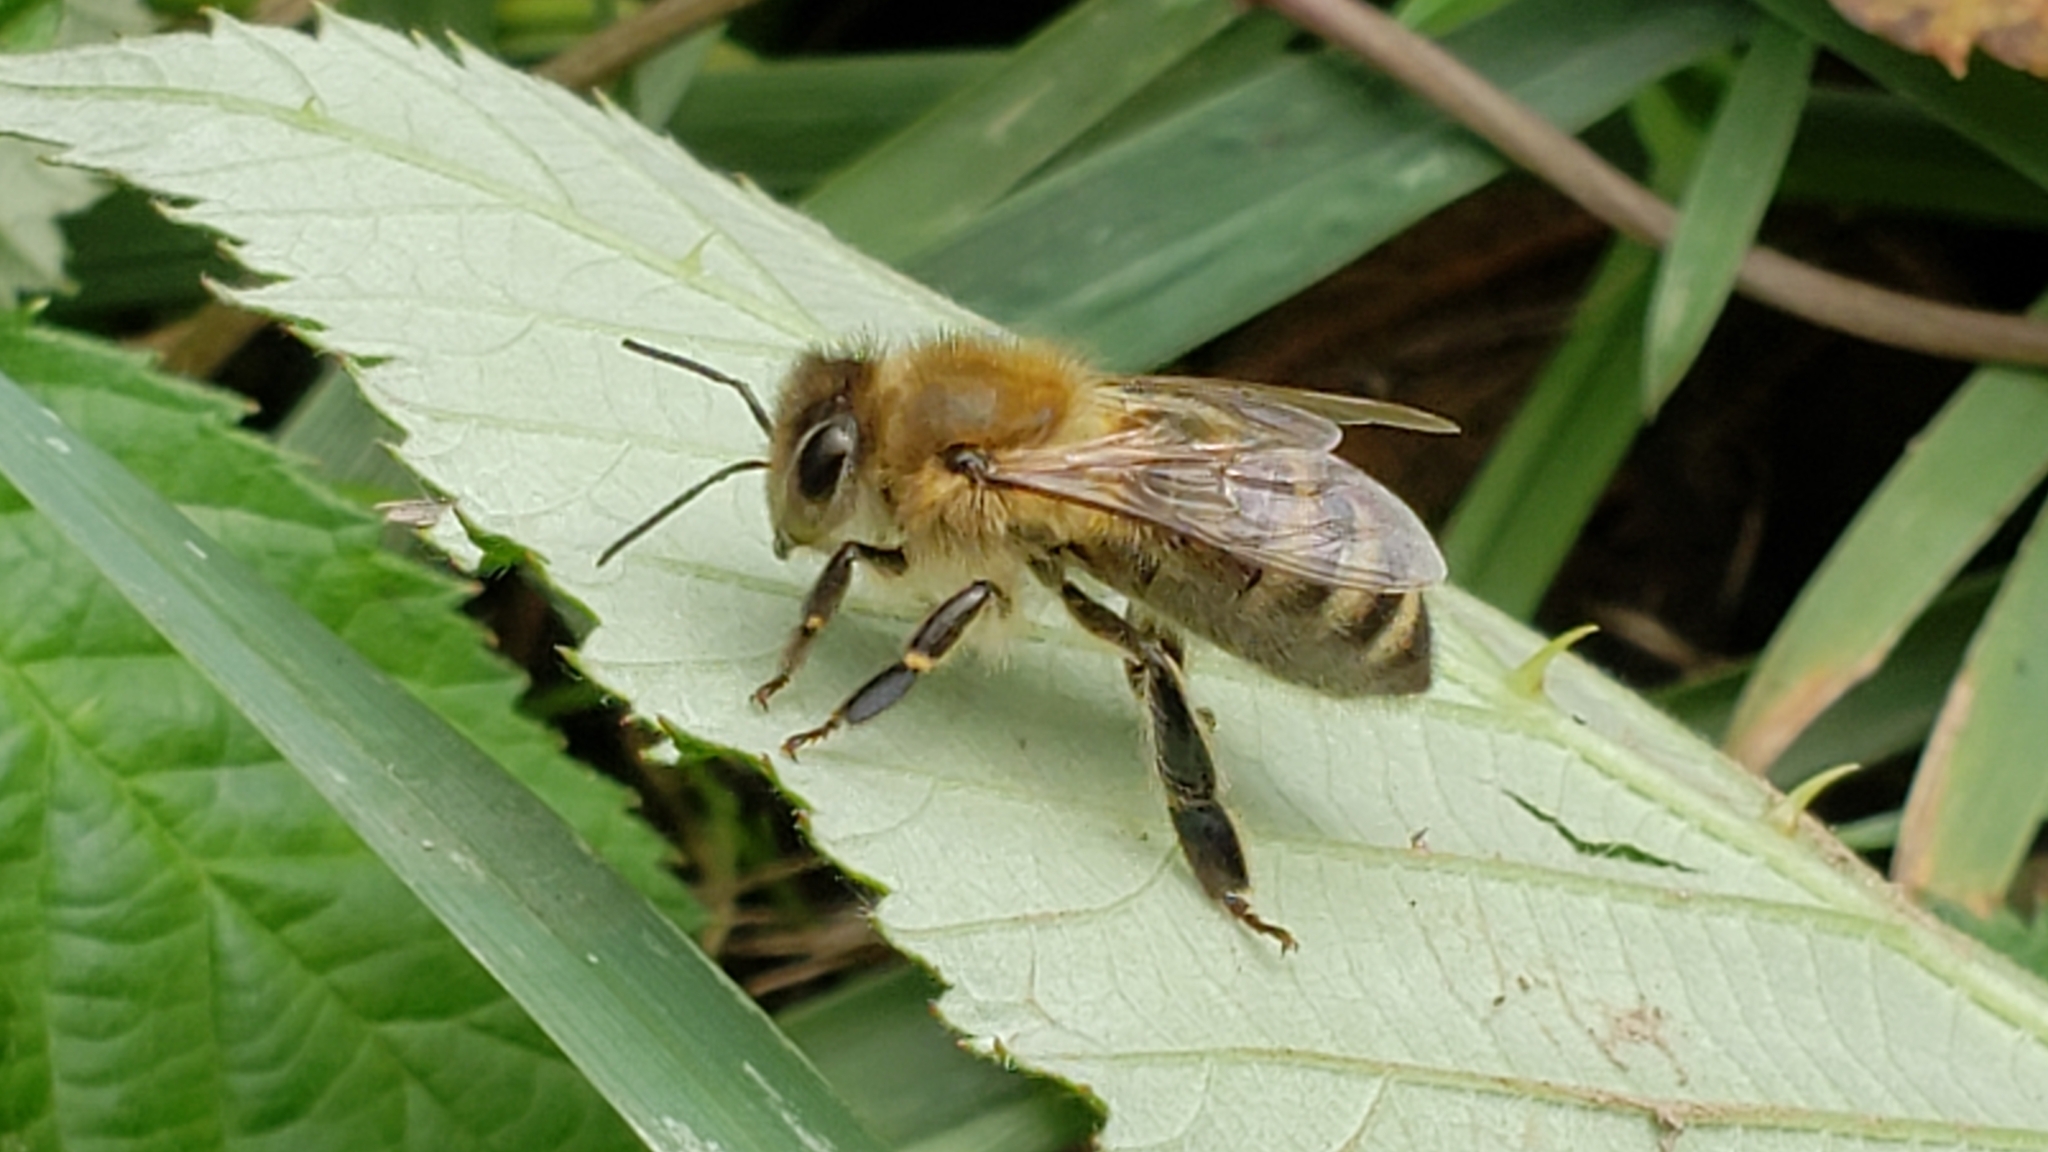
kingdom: Animalia
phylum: Arthropoda
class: Insecta
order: Hymenoptera
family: Apidae
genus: Apis
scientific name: Apis mellifera
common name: Honey bee
